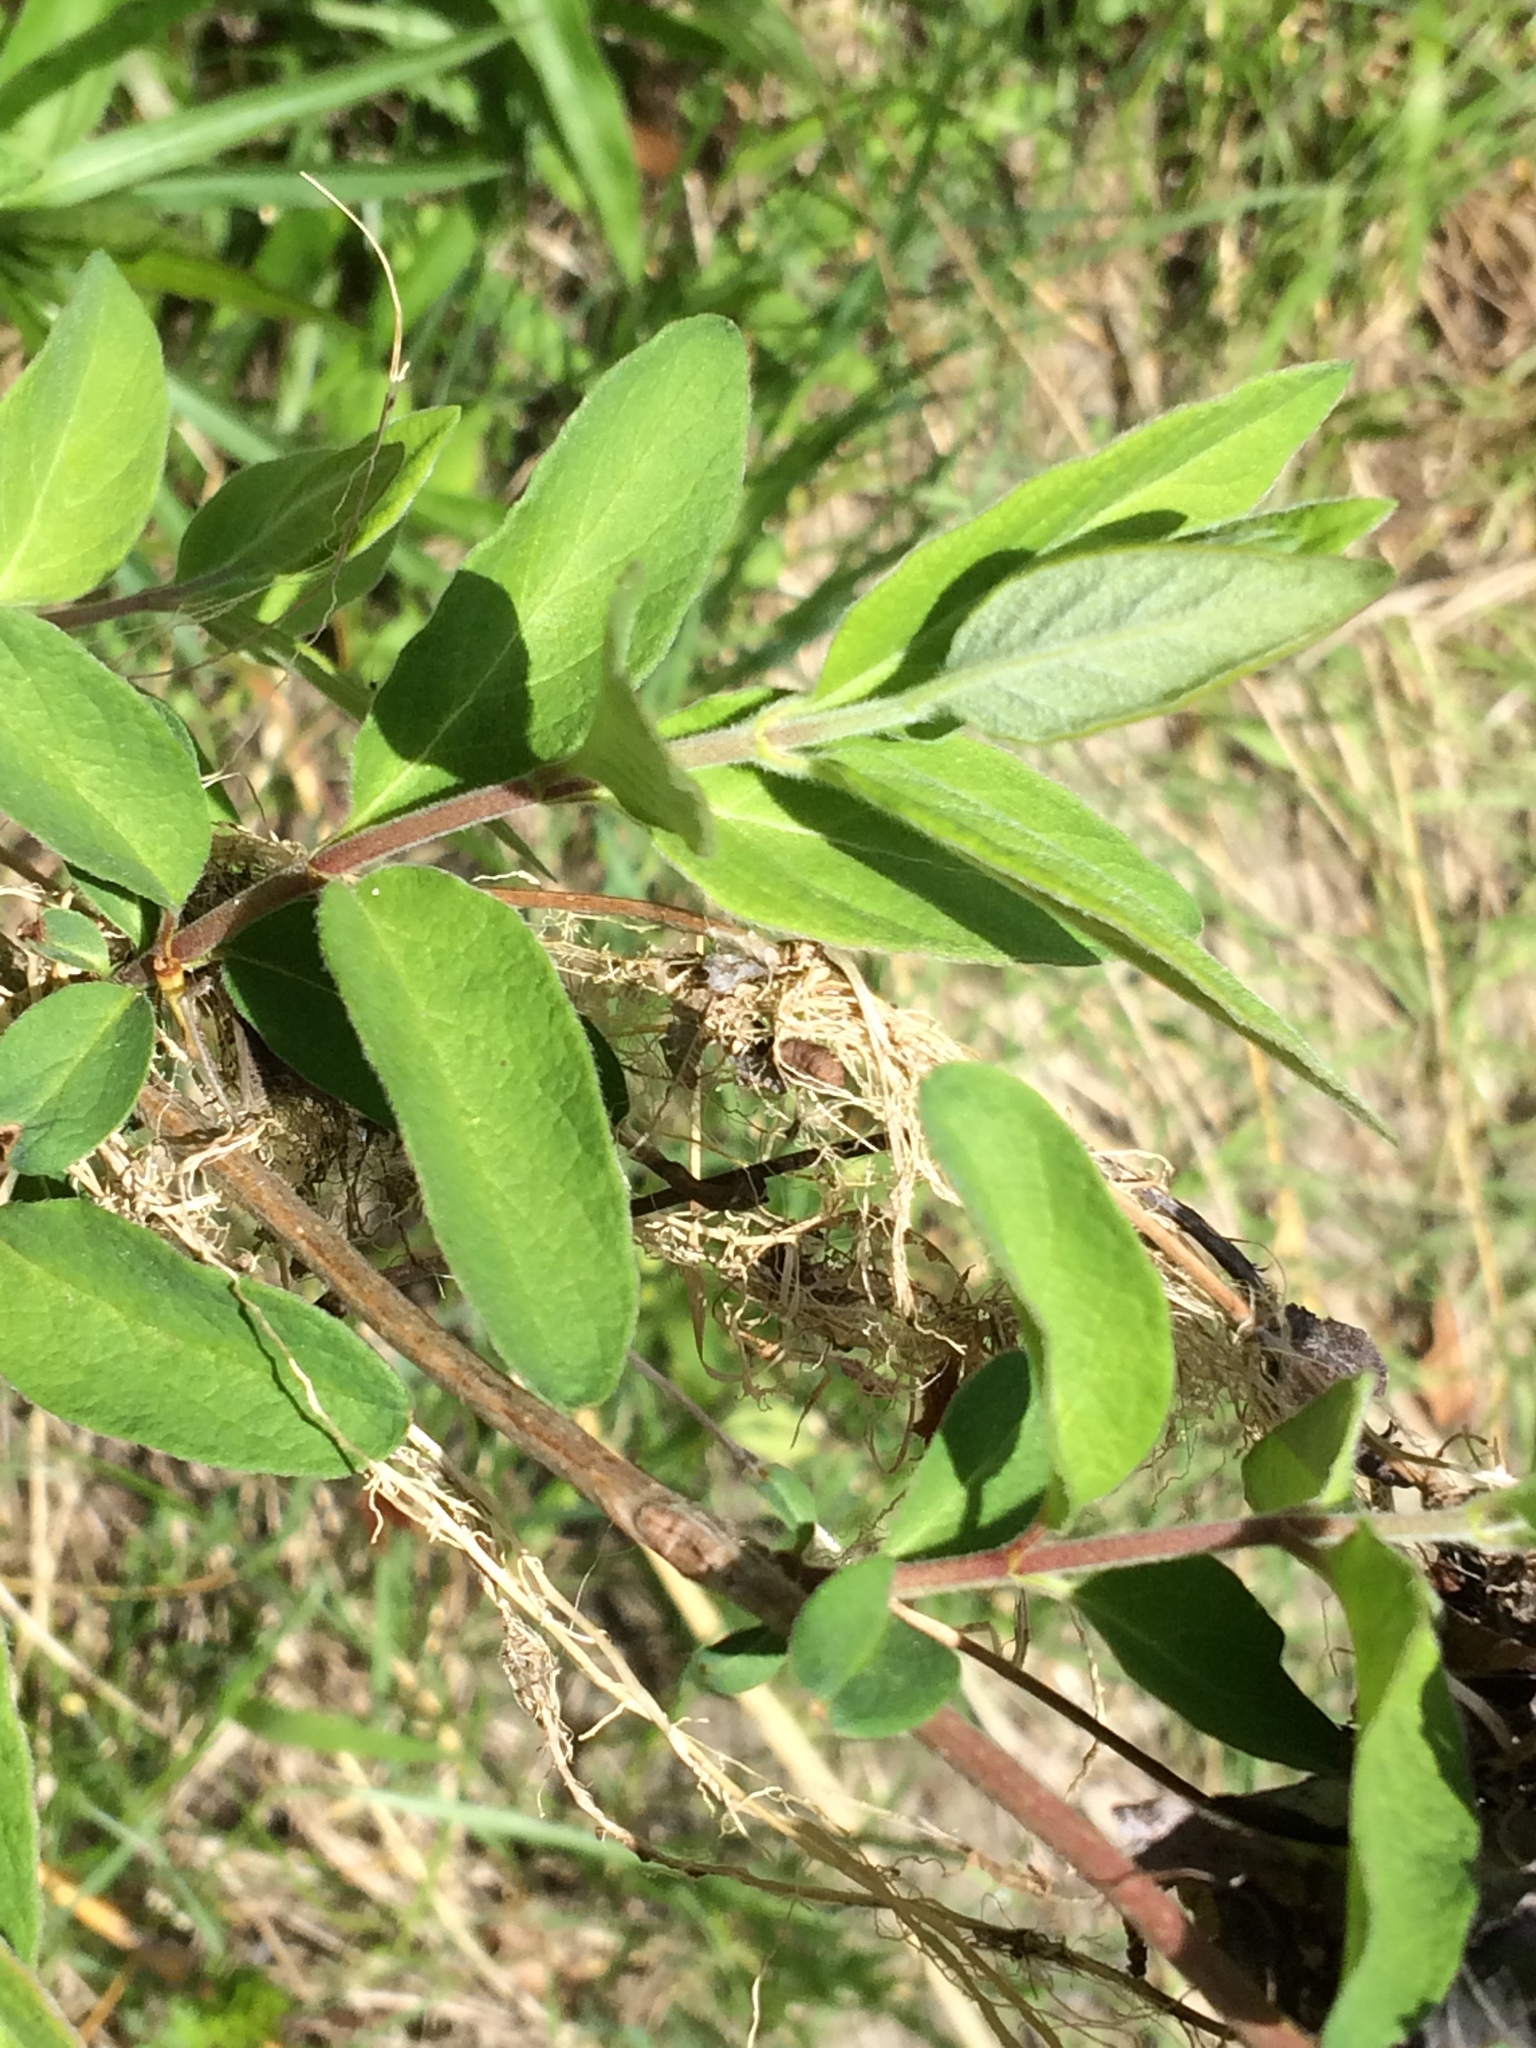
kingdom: Plantae
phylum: Tracheophyta
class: Magnoliopsida
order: Dipsacales
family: Caprifoliaceae
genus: Lonicera
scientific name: Lonicera morrowii
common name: Morrow's honeysuckle
